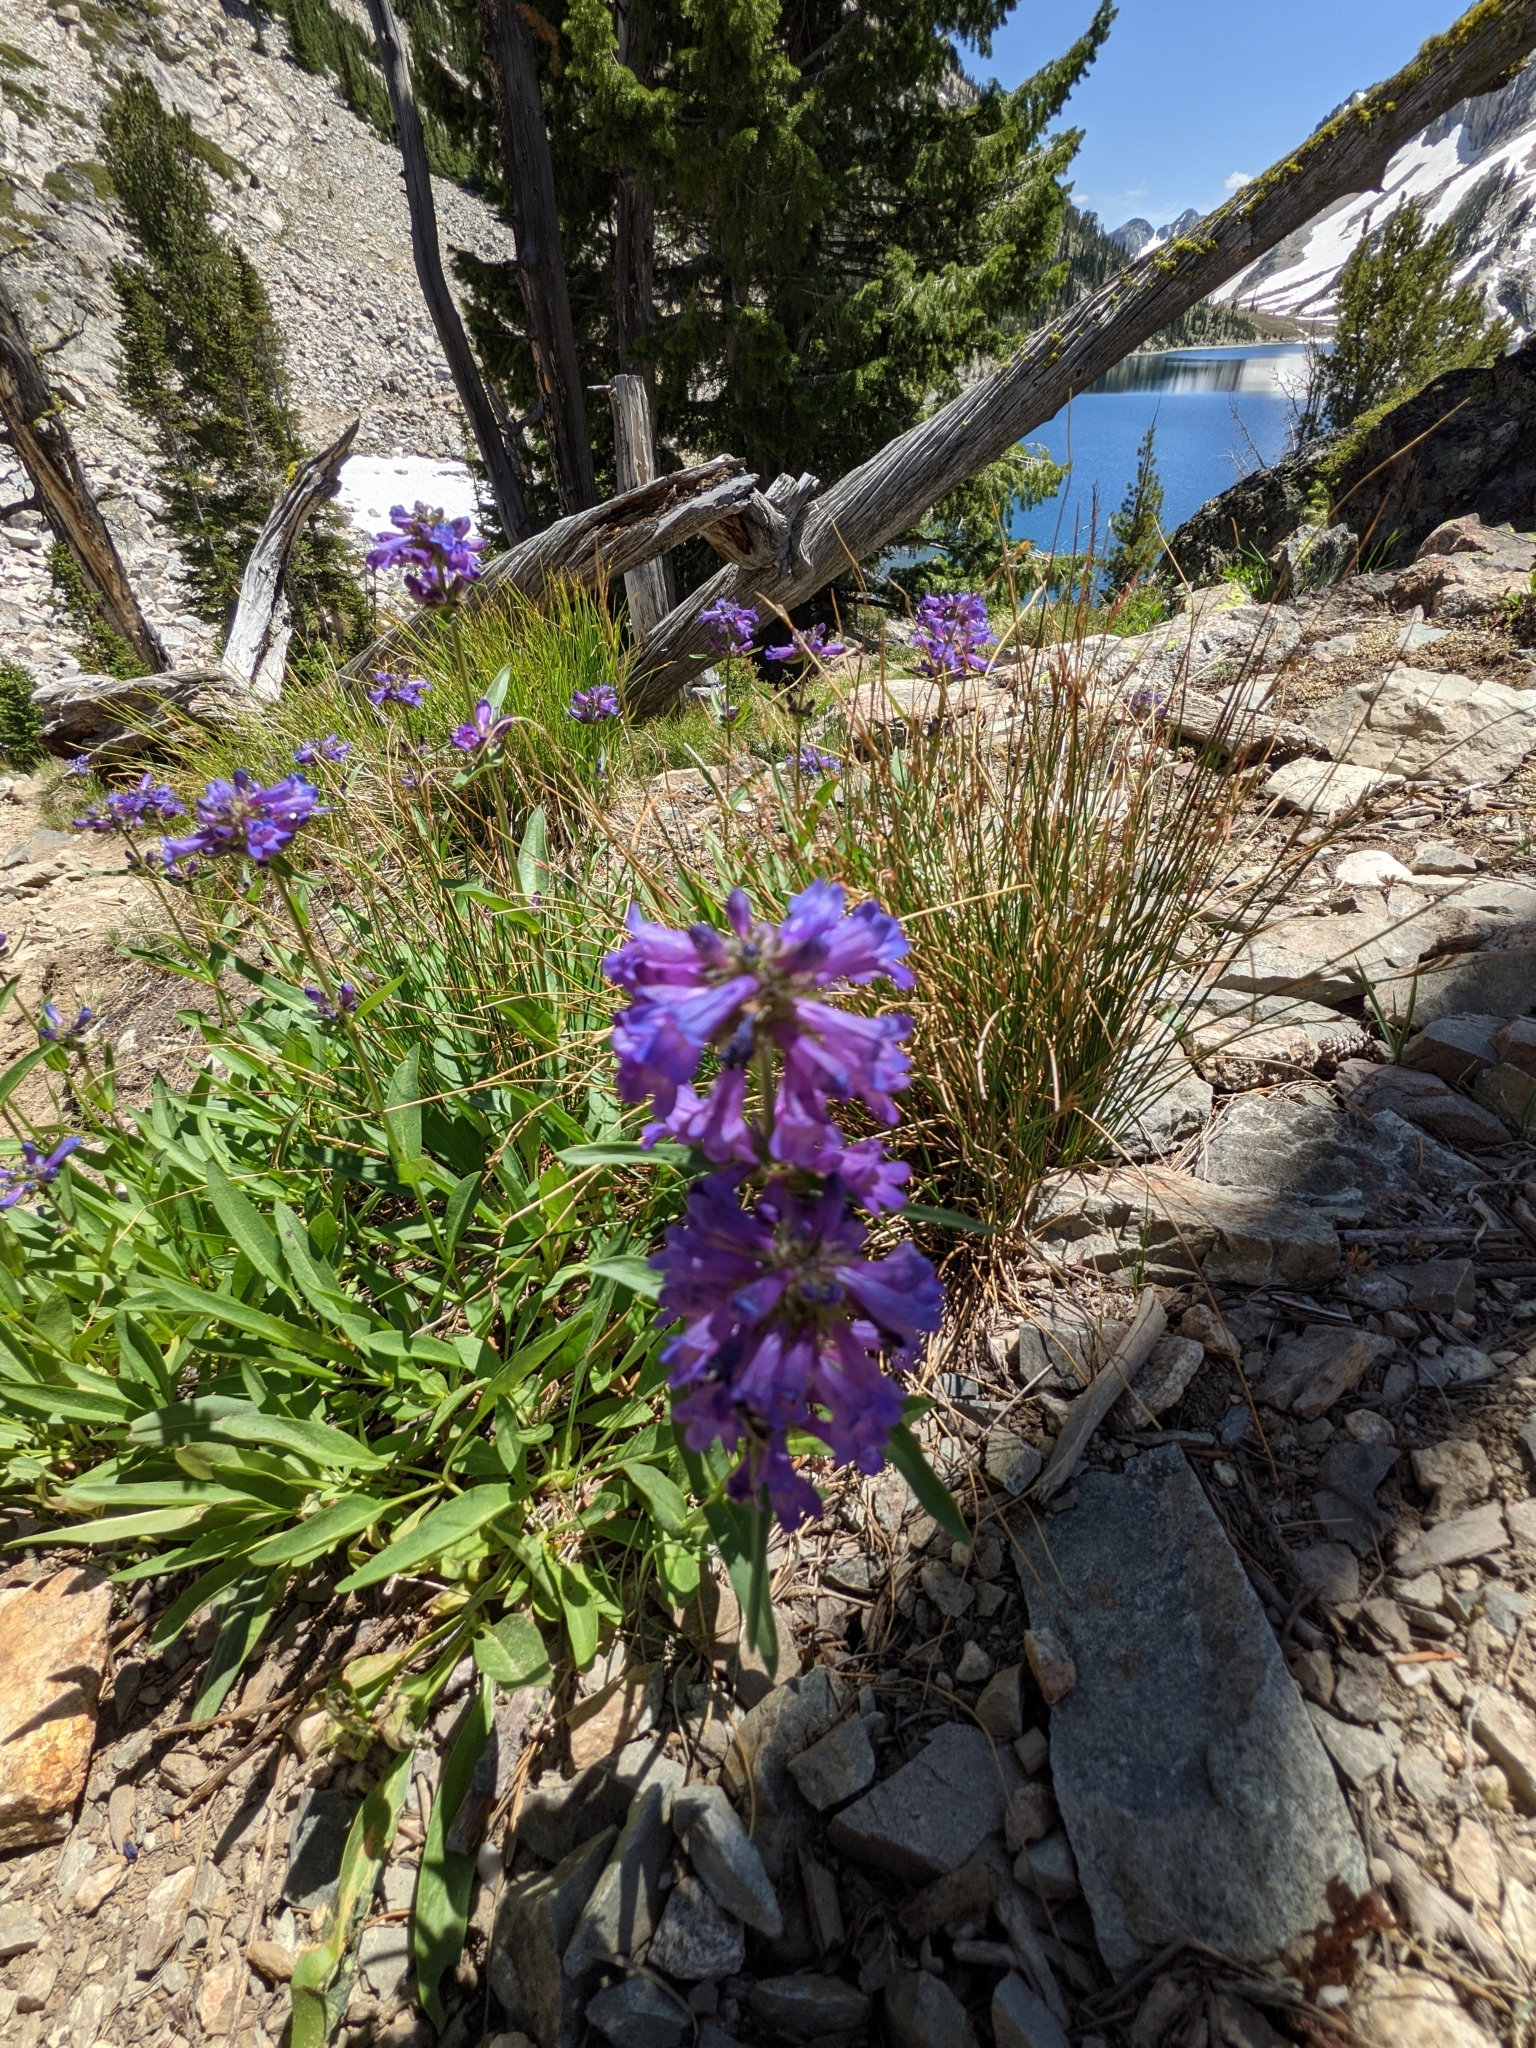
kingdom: Plantae
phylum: Tracheophyta
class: Magnoliopsida
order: Lamiales
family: Plantaginaceae
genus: Penstemon
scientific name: Penstemon rydbergii
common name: Rydberg's beardtongue
